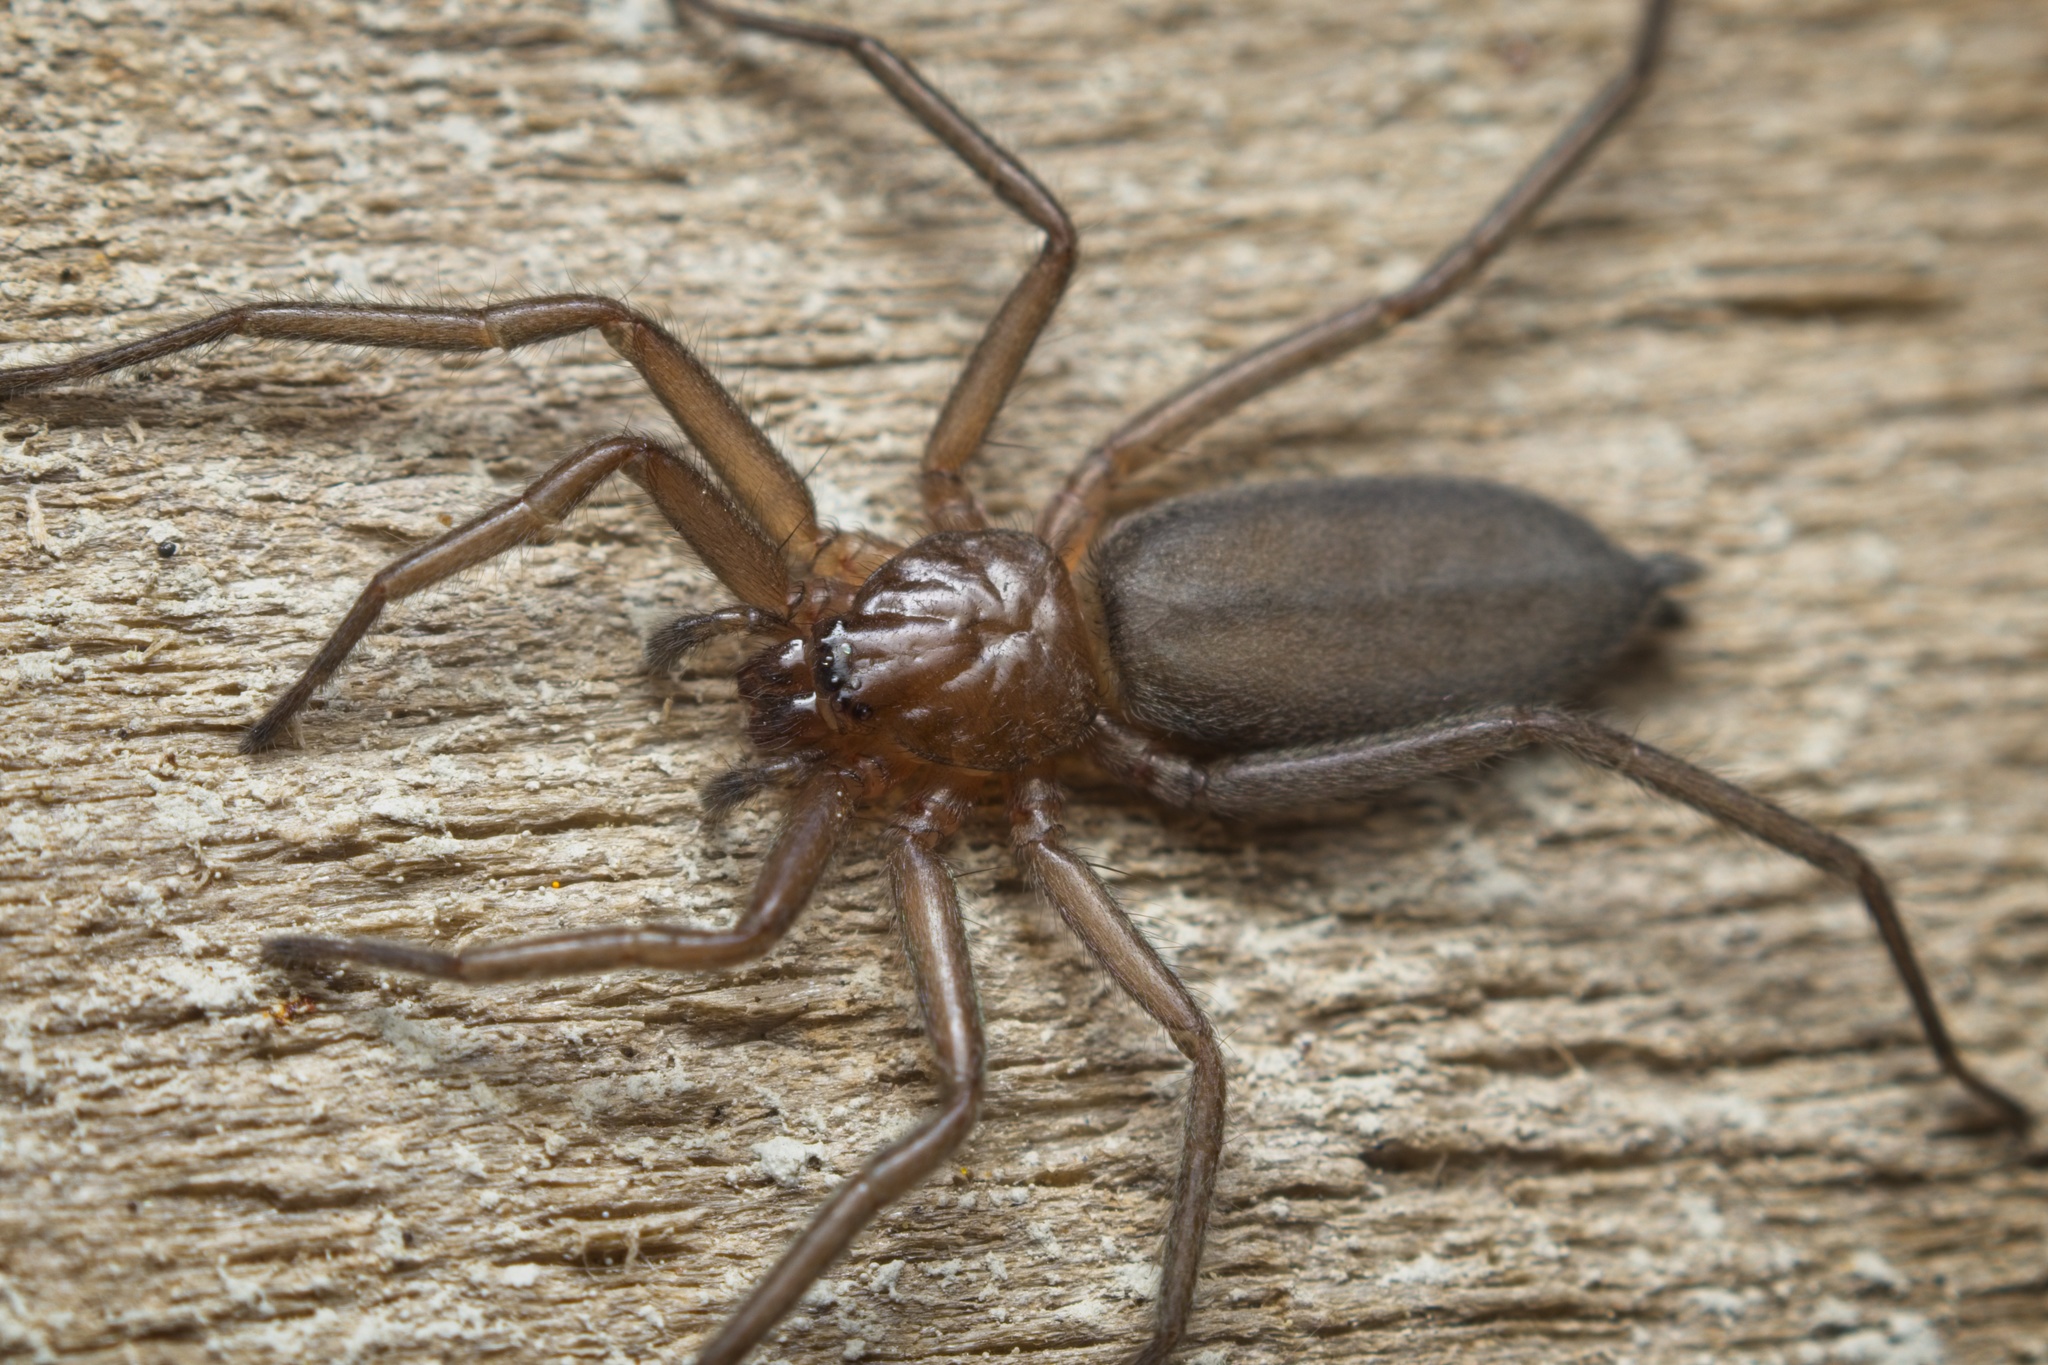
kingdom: Animalia
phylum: Arthropoda
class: Arachnida
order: Araneae
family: Trochanteriidae
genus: Hemicloea
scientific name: Hemicloea rogenhoferi
